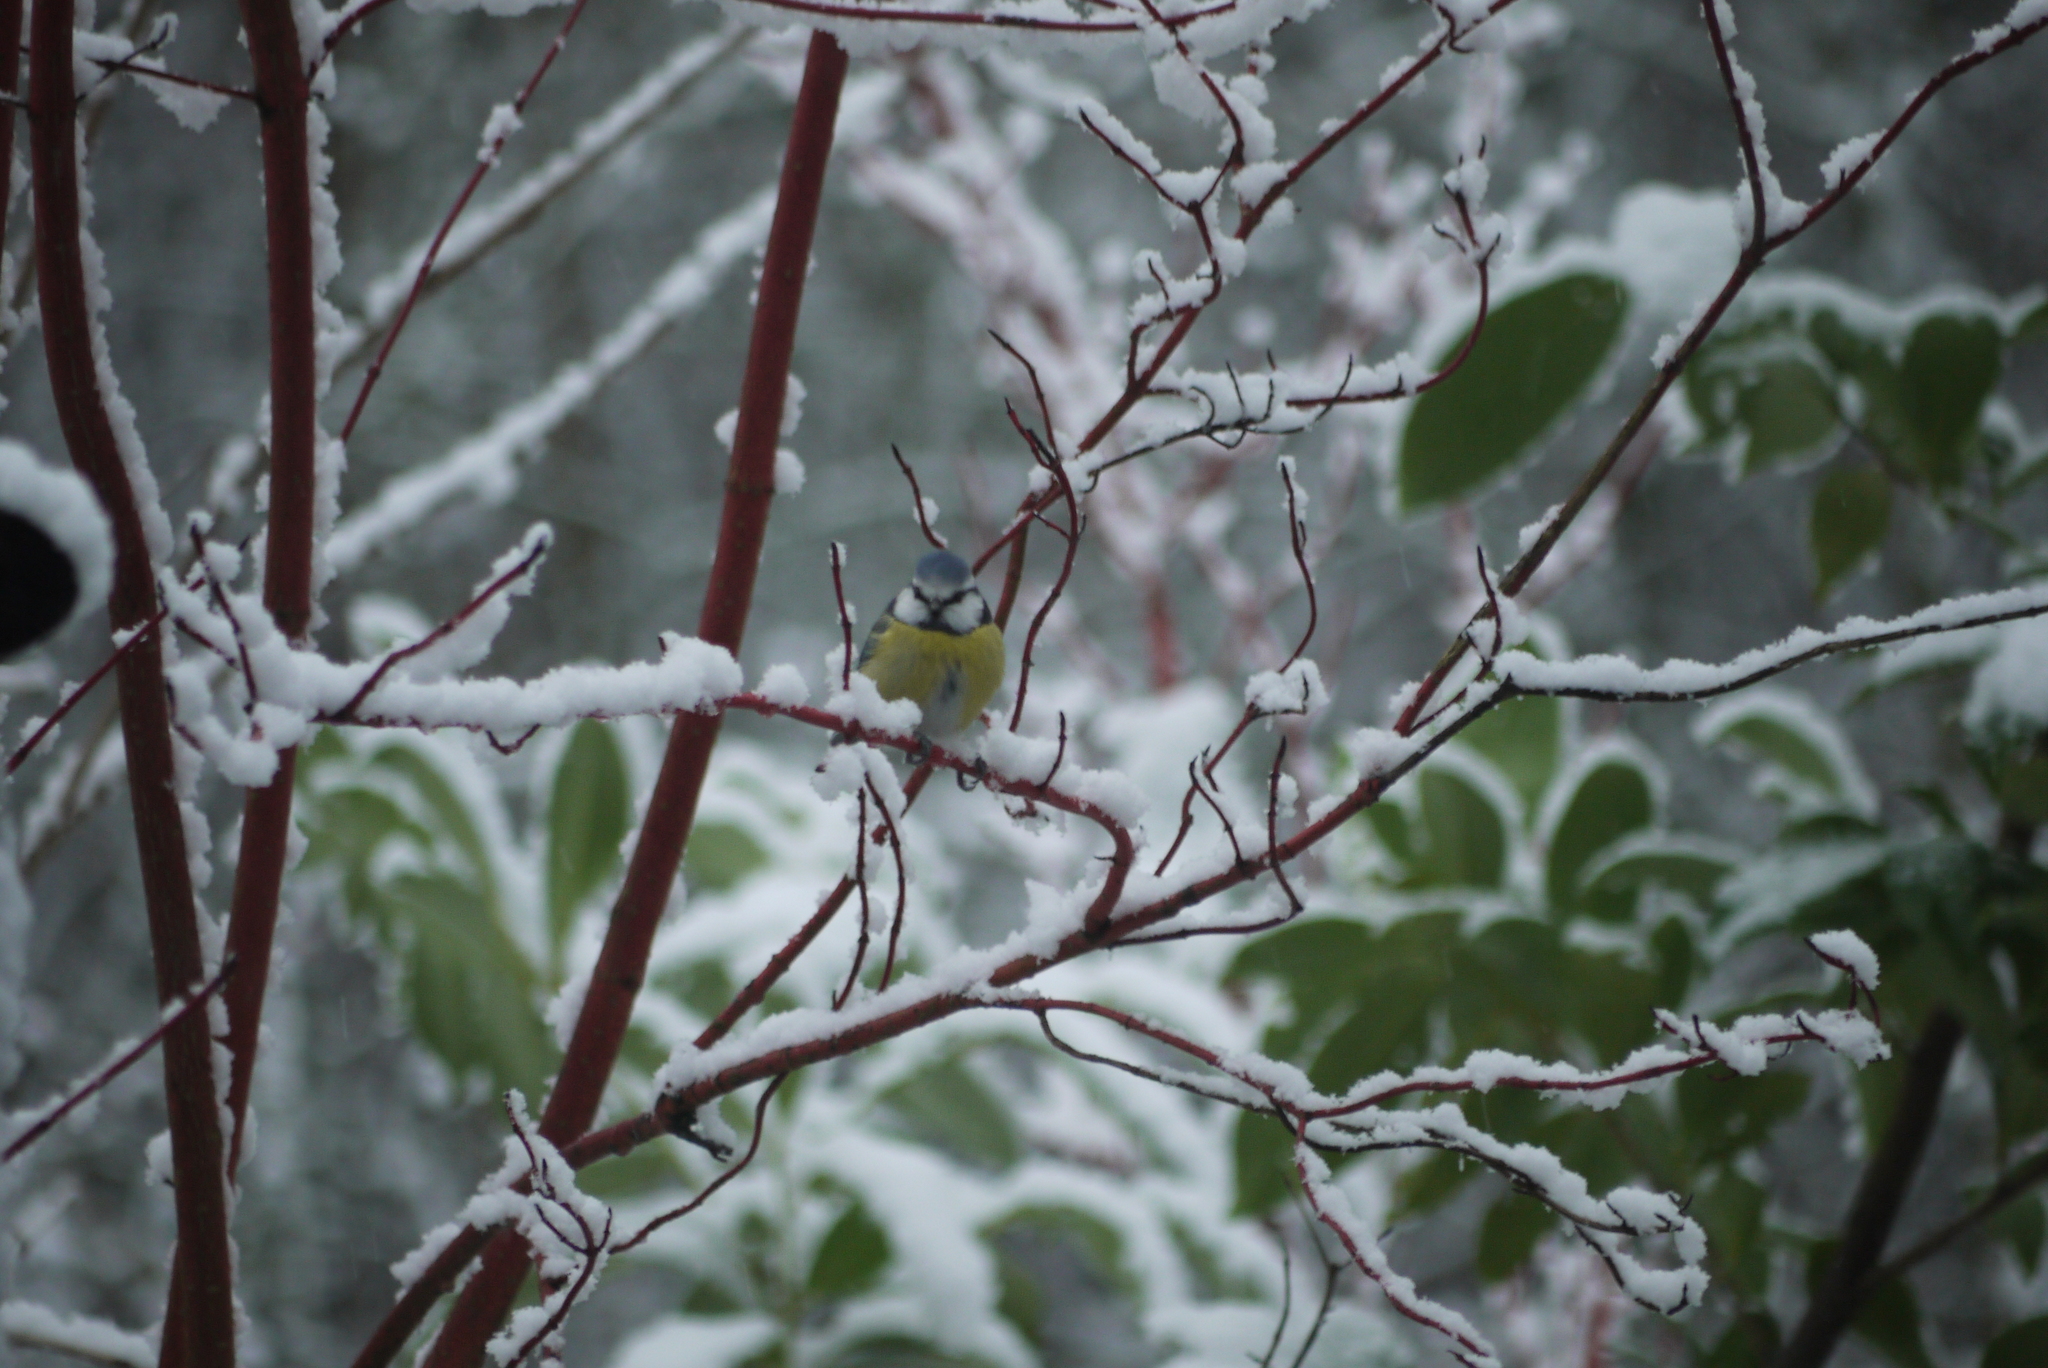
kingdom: Animalia
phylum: Chordata
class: Aves
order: Passeriformes
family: Paridae
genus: Cyanistes
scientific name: Cyanistes caeruleus
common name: Eurasian blue tit
